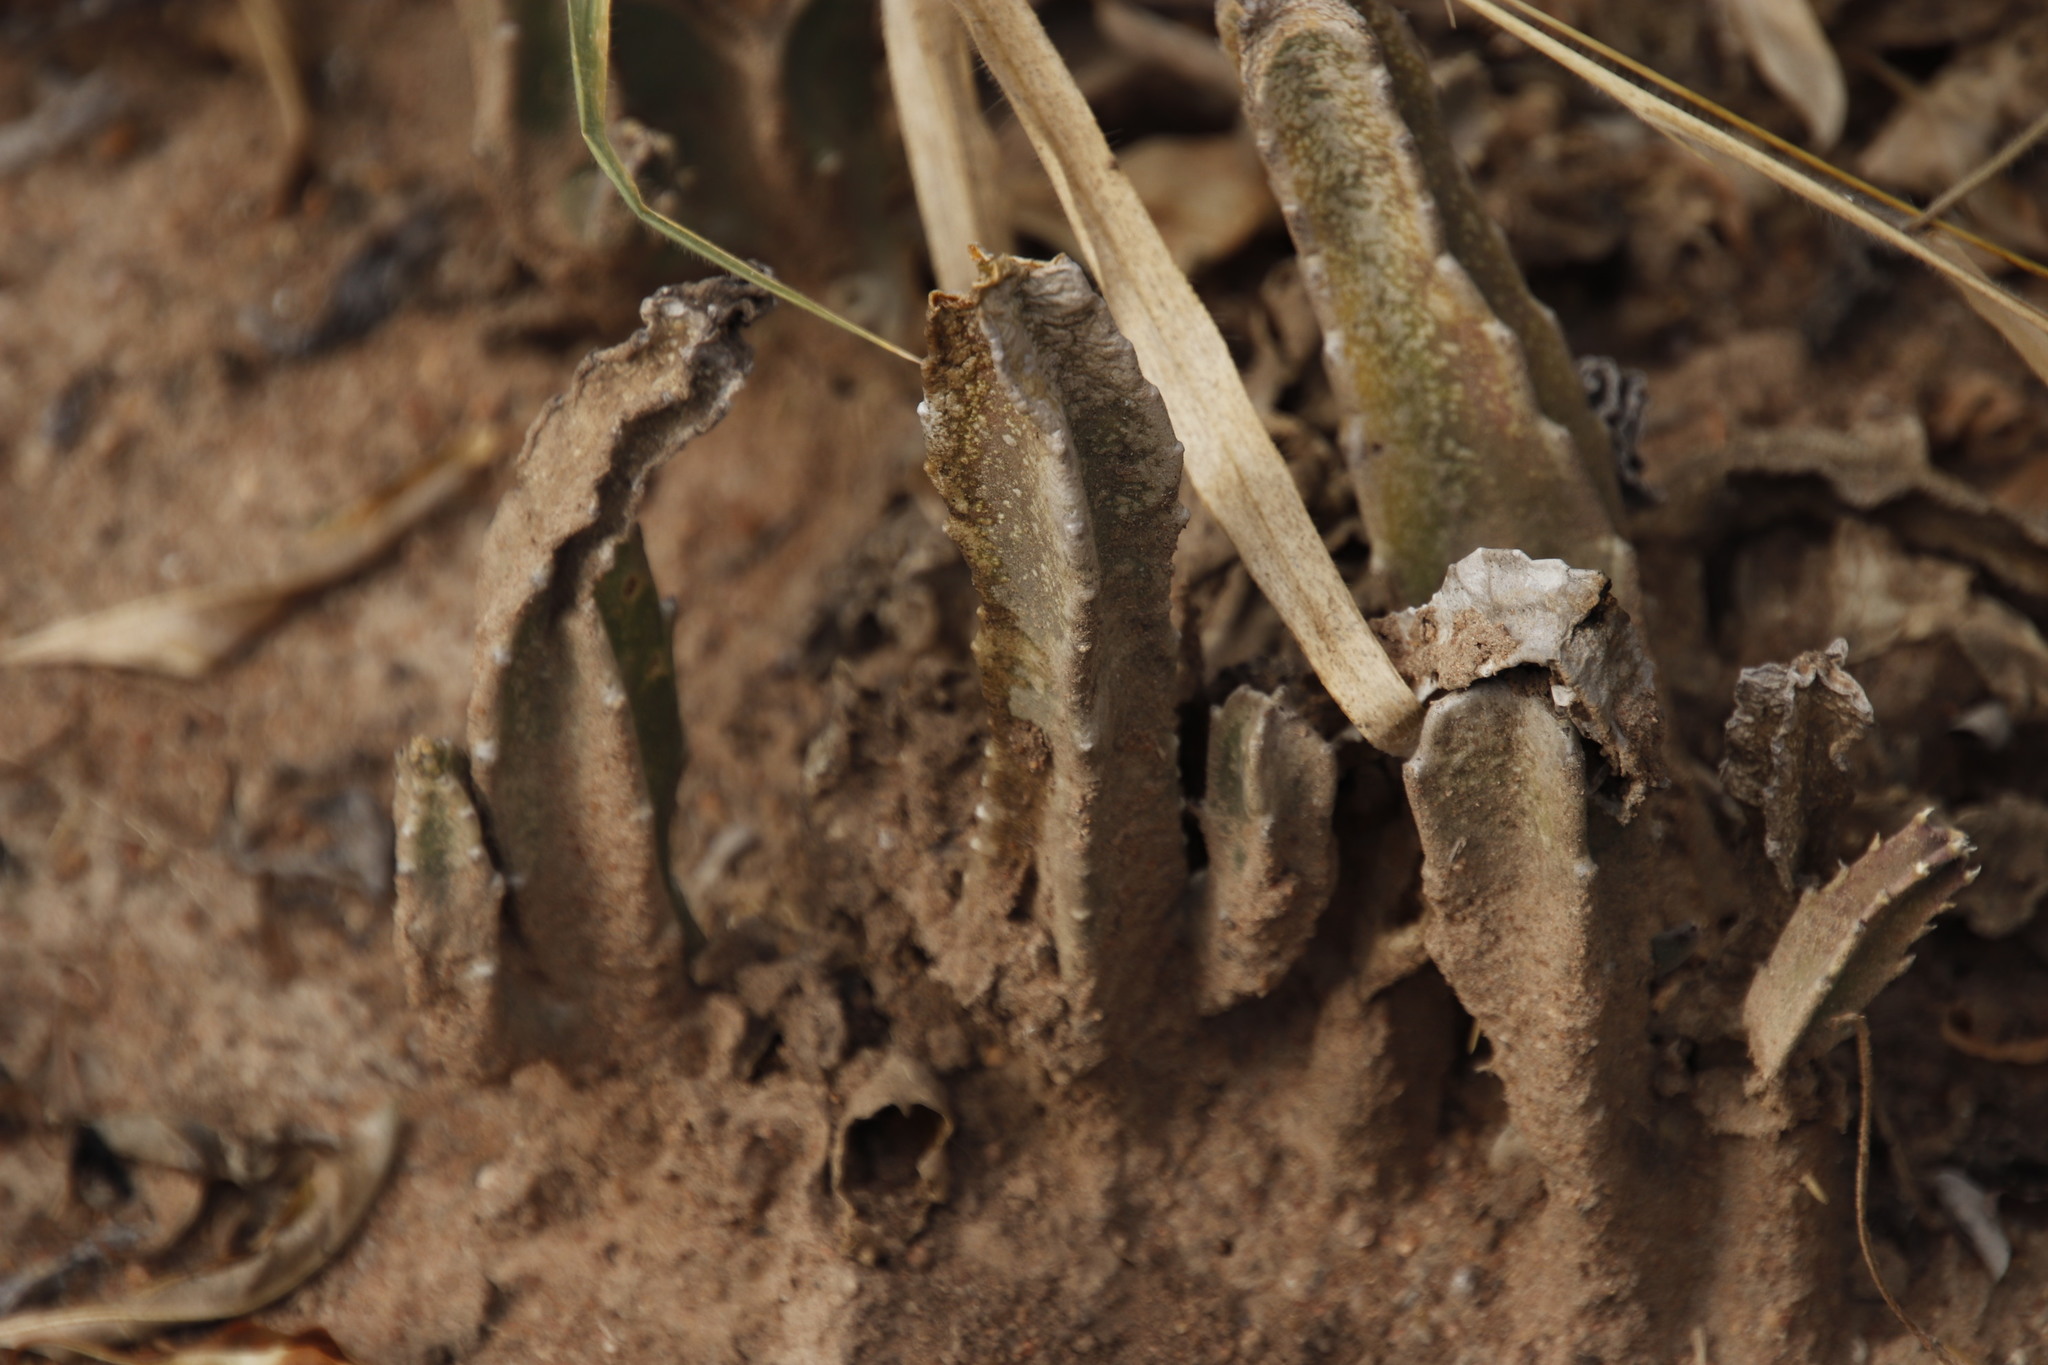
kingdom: Plantae
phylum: Tracheophyta
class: Magnoliopsida
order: Gentianales
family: Apocynaceae
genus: Ceropegia
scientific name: Ceropegia gigantea
